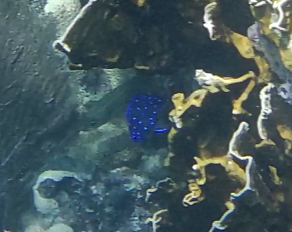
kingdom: Animalia
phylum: Chordata
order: Perciformes
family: Pomacentridae
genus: Microspathodon
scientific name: Microspathodon chrysurus
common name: Yellowtail damselfish
